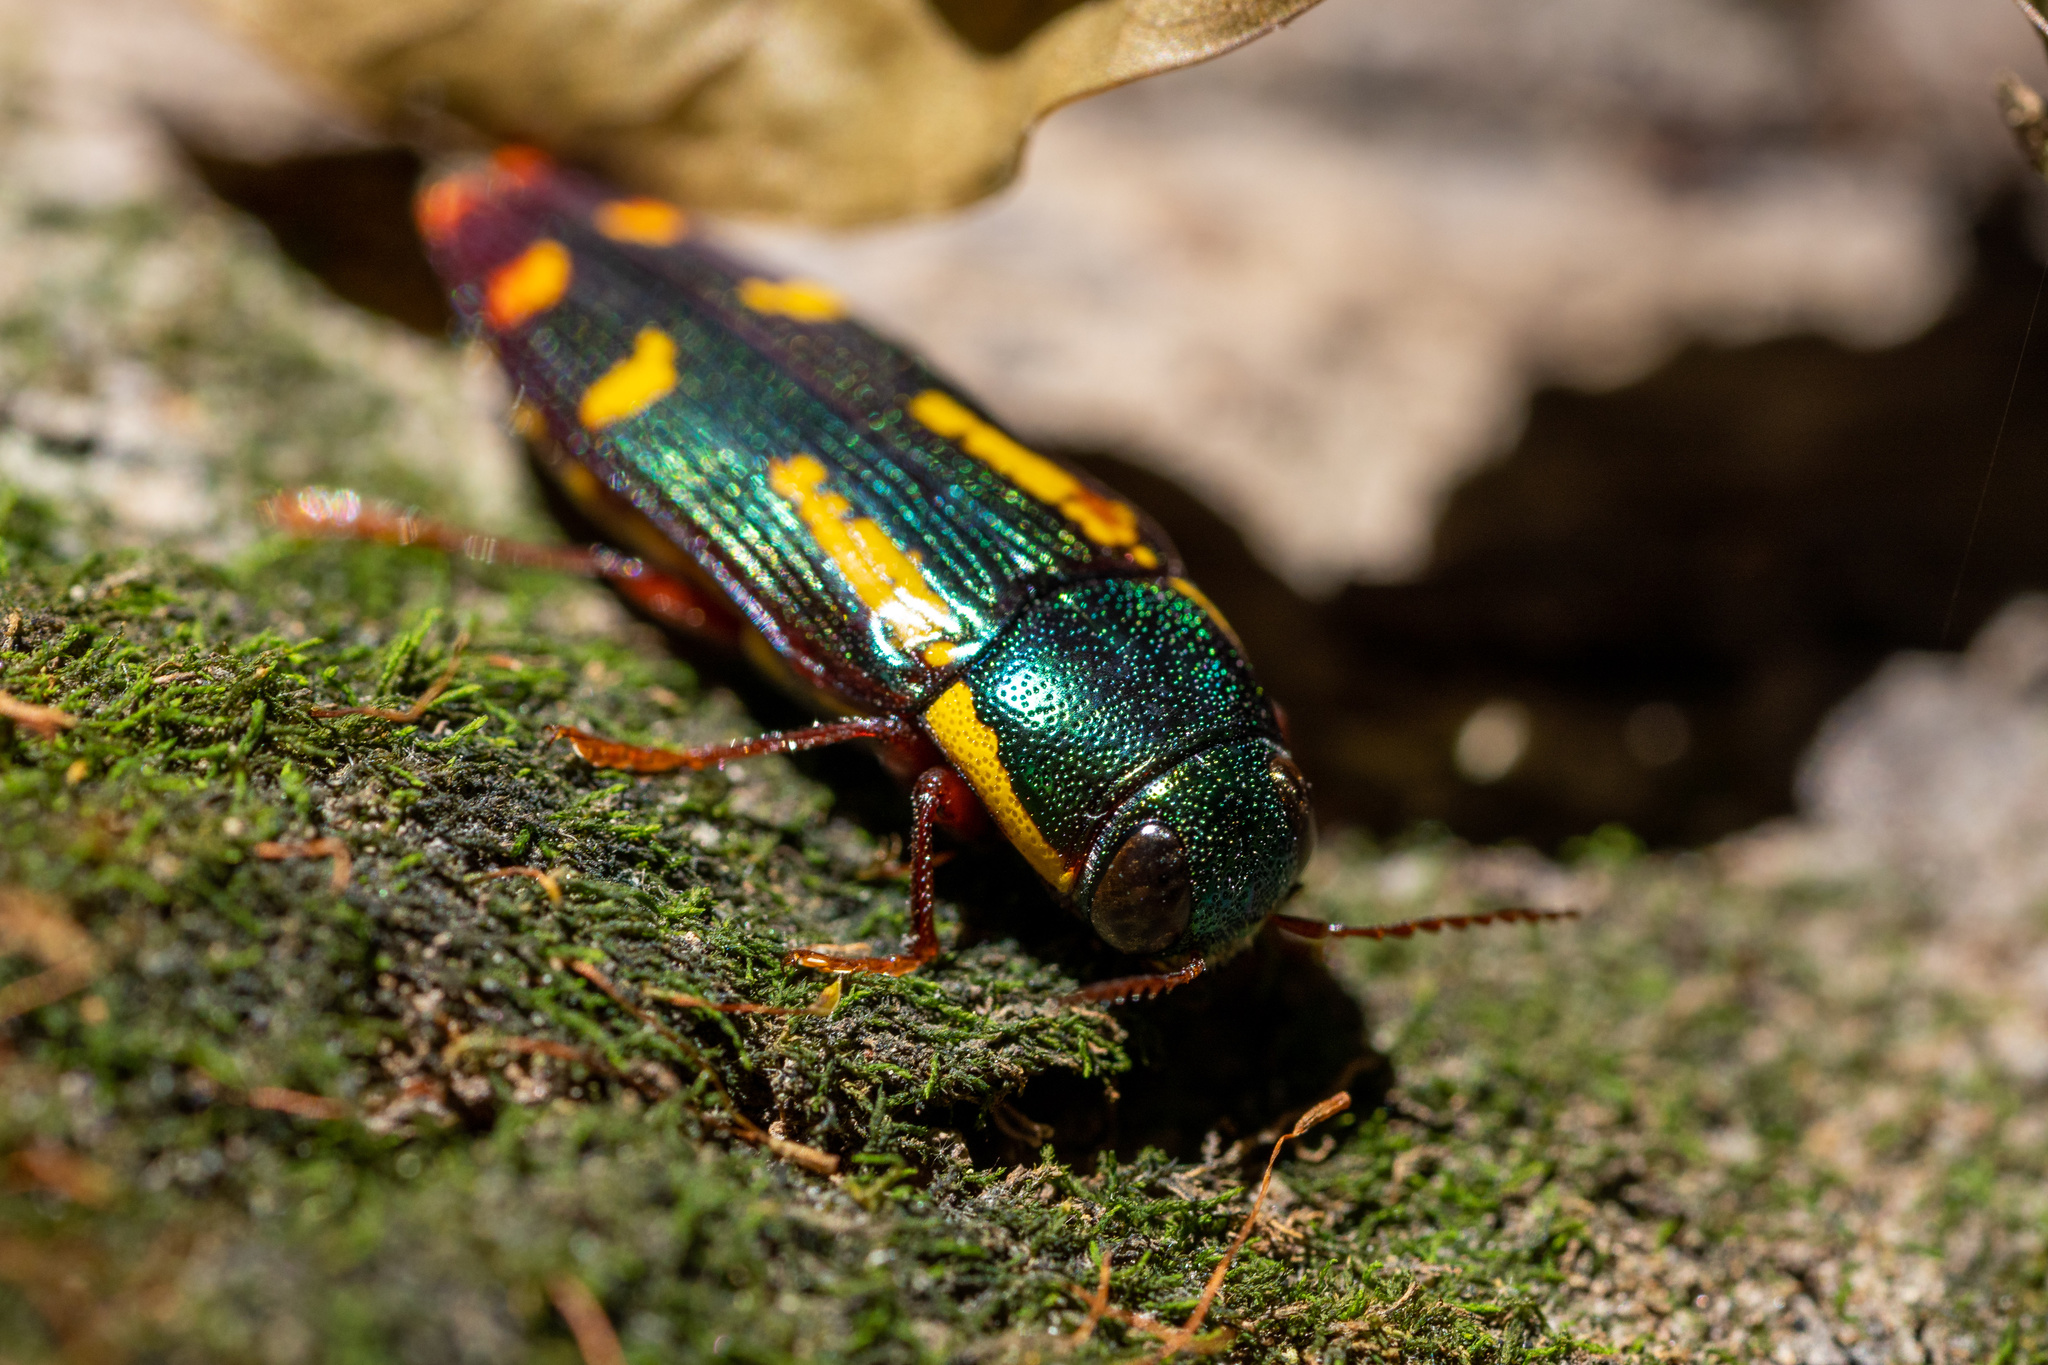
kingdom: Animalia
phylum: Arthropoda
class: Insecta
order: Coleoptera
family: Buprestidae
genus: Buprestis
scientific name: Buprestis rufipes
